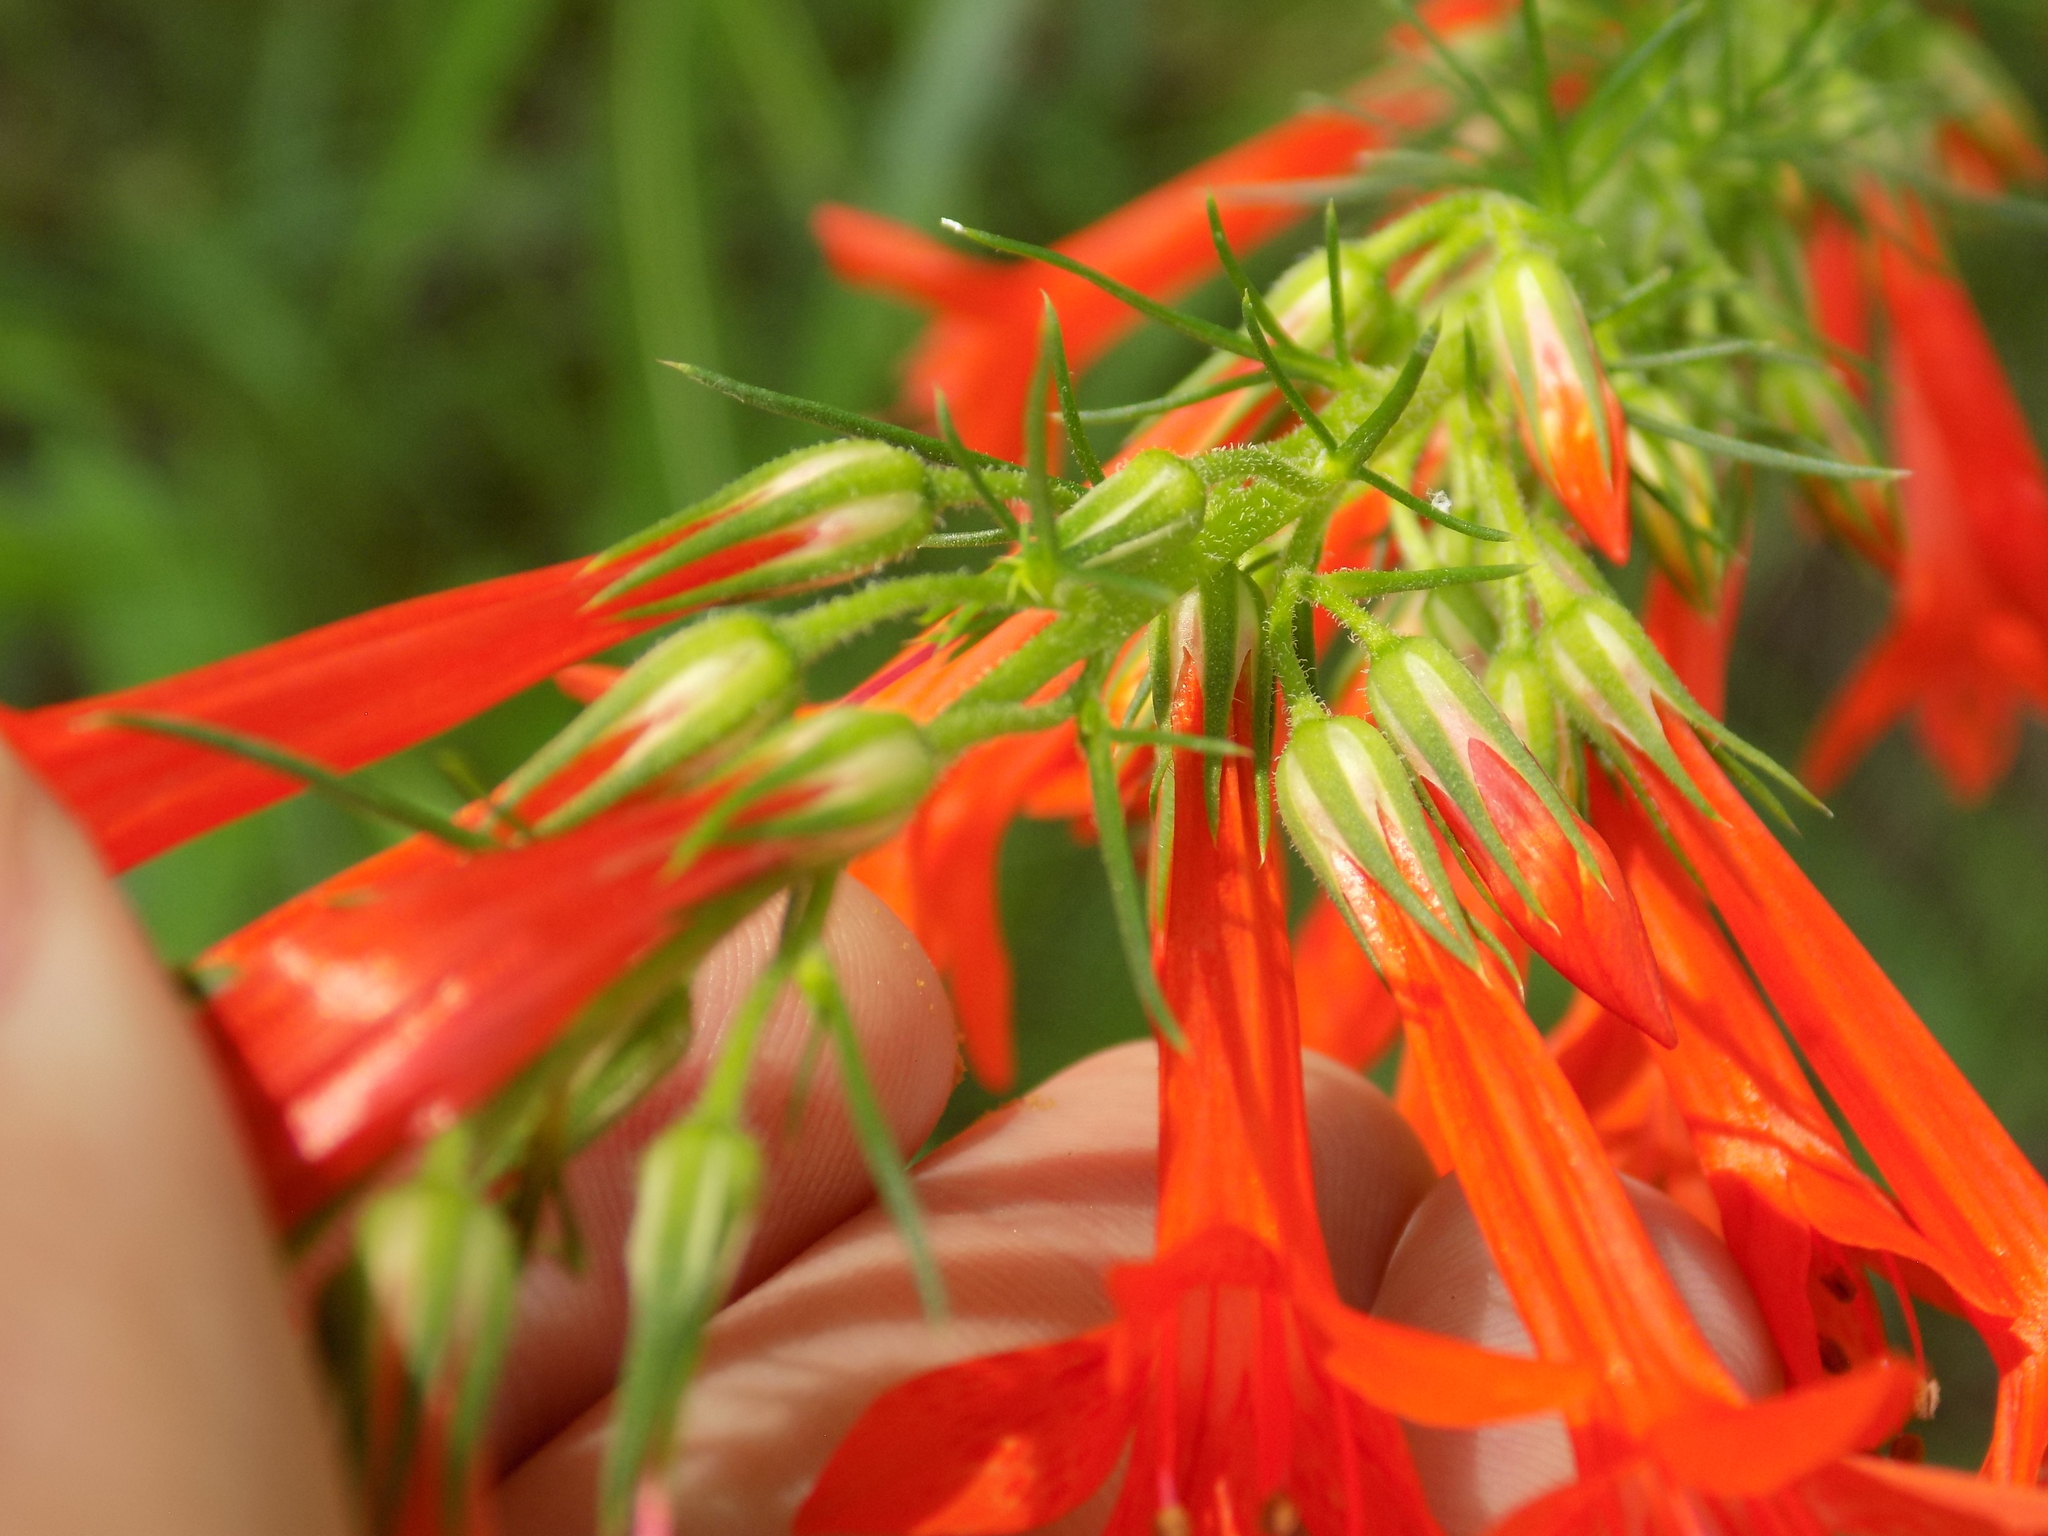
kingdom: Plantae
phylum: Tracheophyta
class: Magnoliopsida
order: Ericales
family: Polemoniaceae
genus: Ipomopsis
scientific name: Ipomopsis rubra
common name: Skyrocket
